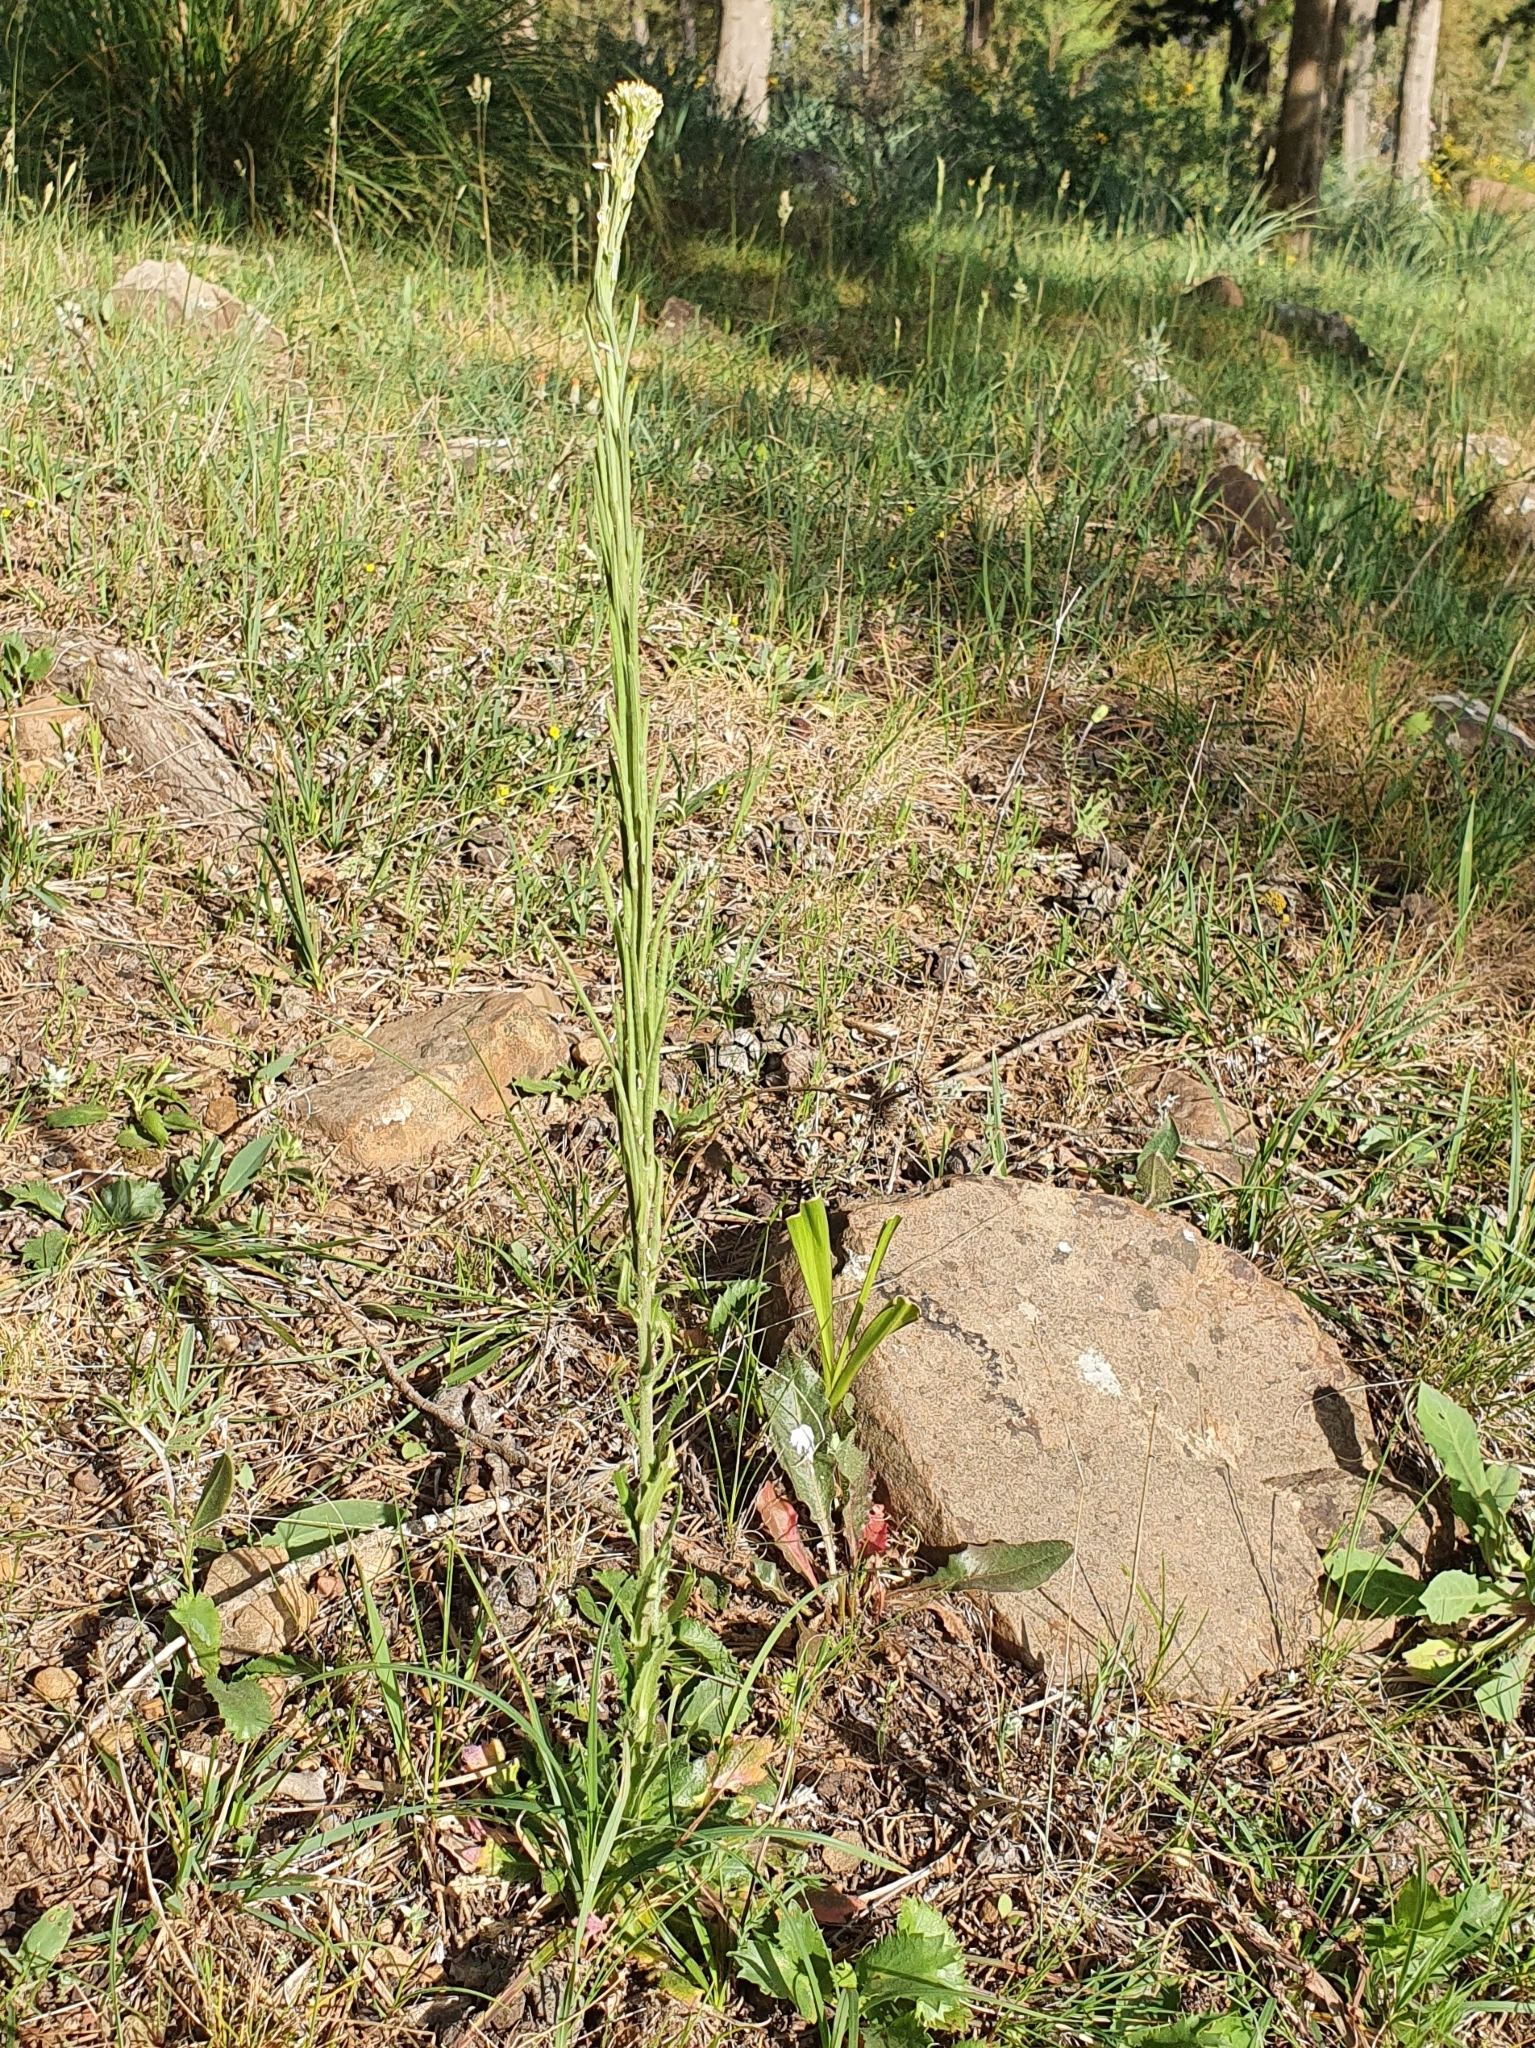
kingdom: Plantae
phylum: Tracheophyta
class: Magnoliopsida
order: Brassicales
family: Brassicaceae
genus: Arabis
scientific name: Arabis pubescens
